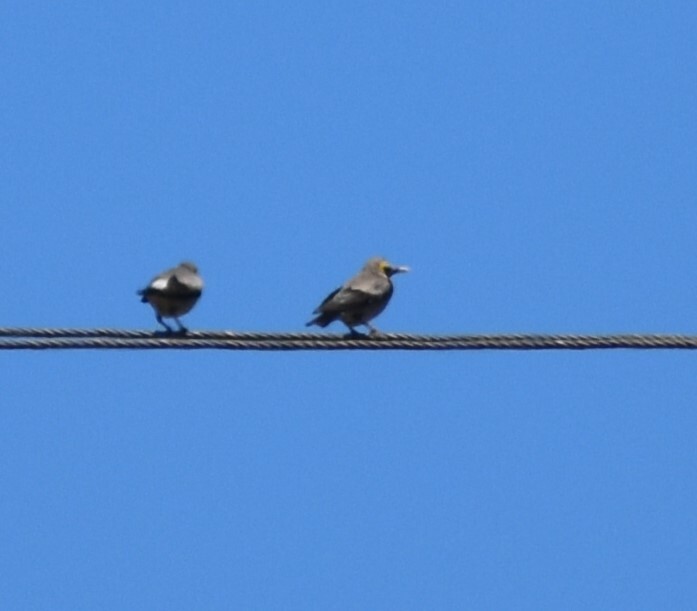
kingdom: Animalia
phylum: Chordata
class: Aves
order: Passeriformes
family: Sturnidae
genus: Creatophora
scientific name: Creatophora cinerea
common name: Wattled starling
